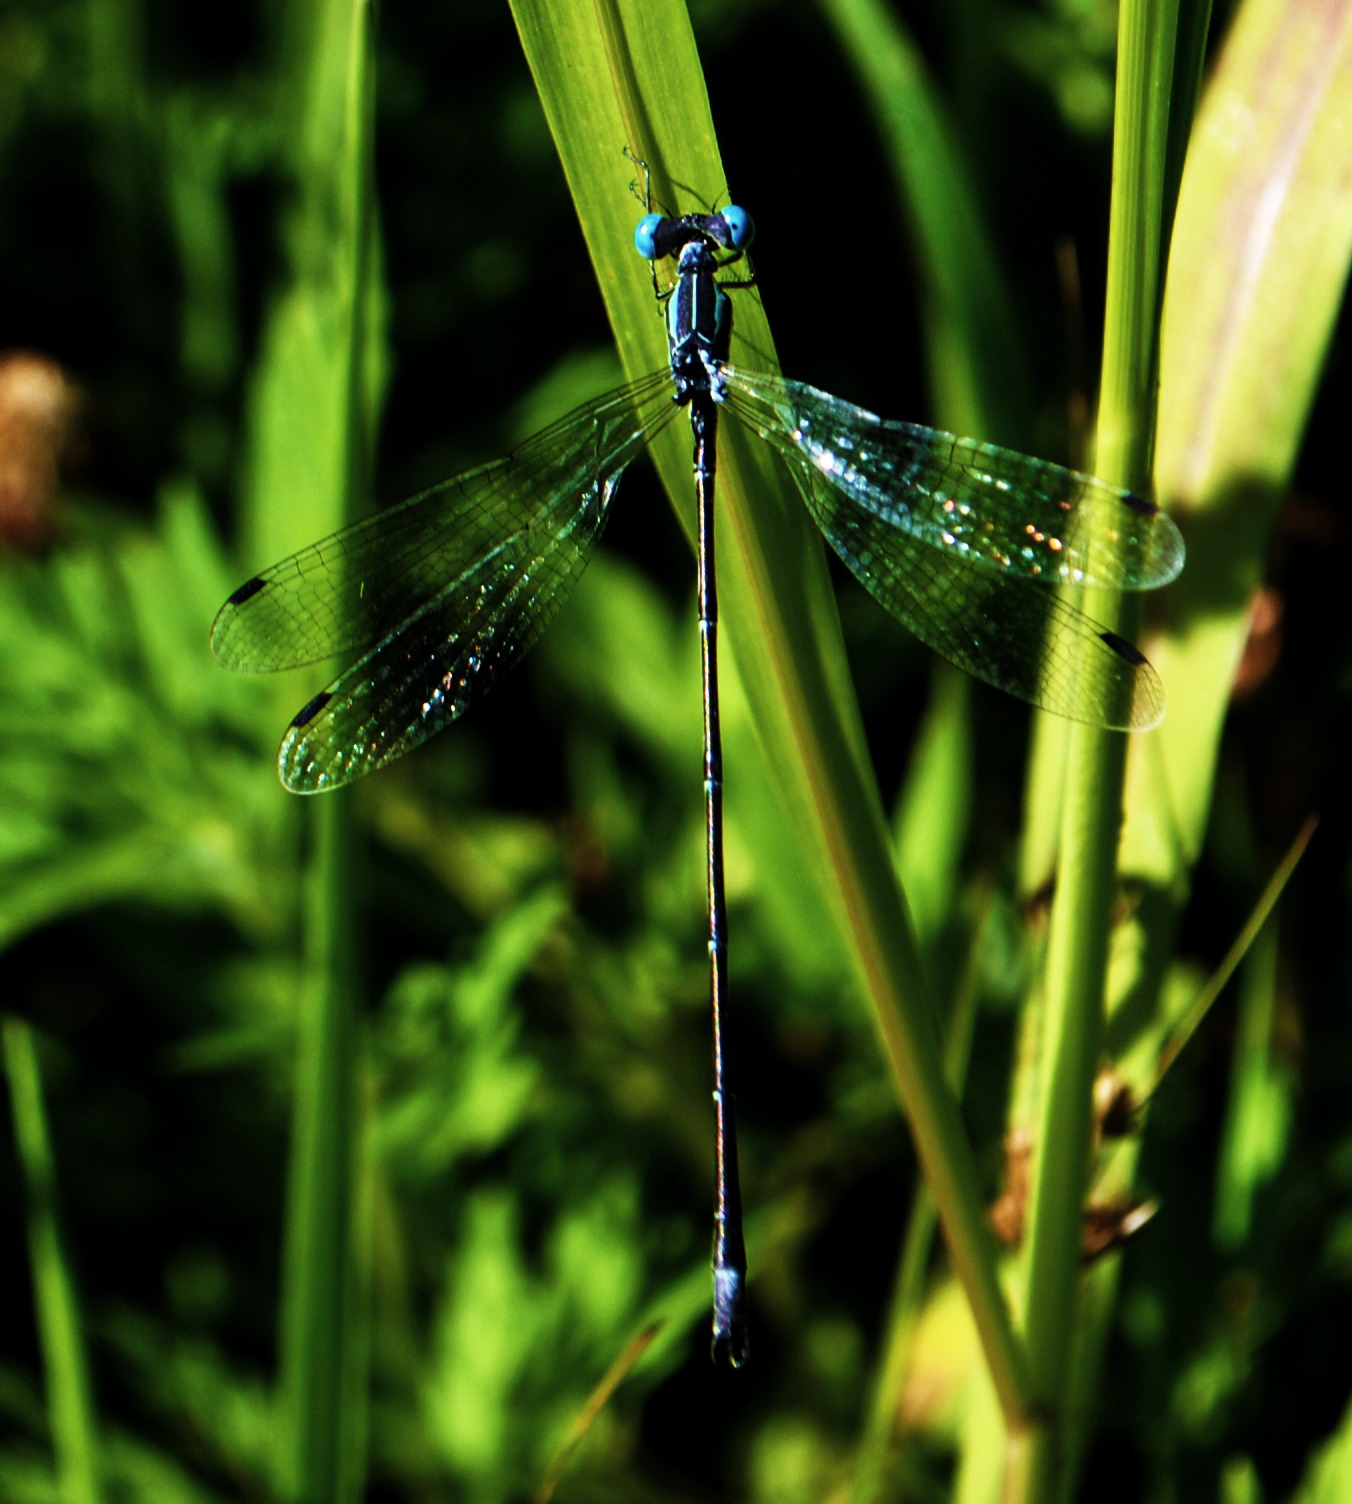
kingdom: Animalia
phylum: Arthropoda
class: Insecta
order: Odonata
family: Lestidae
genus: Lestes
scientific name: Lestes rectangularis
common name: Slender spreadwing
